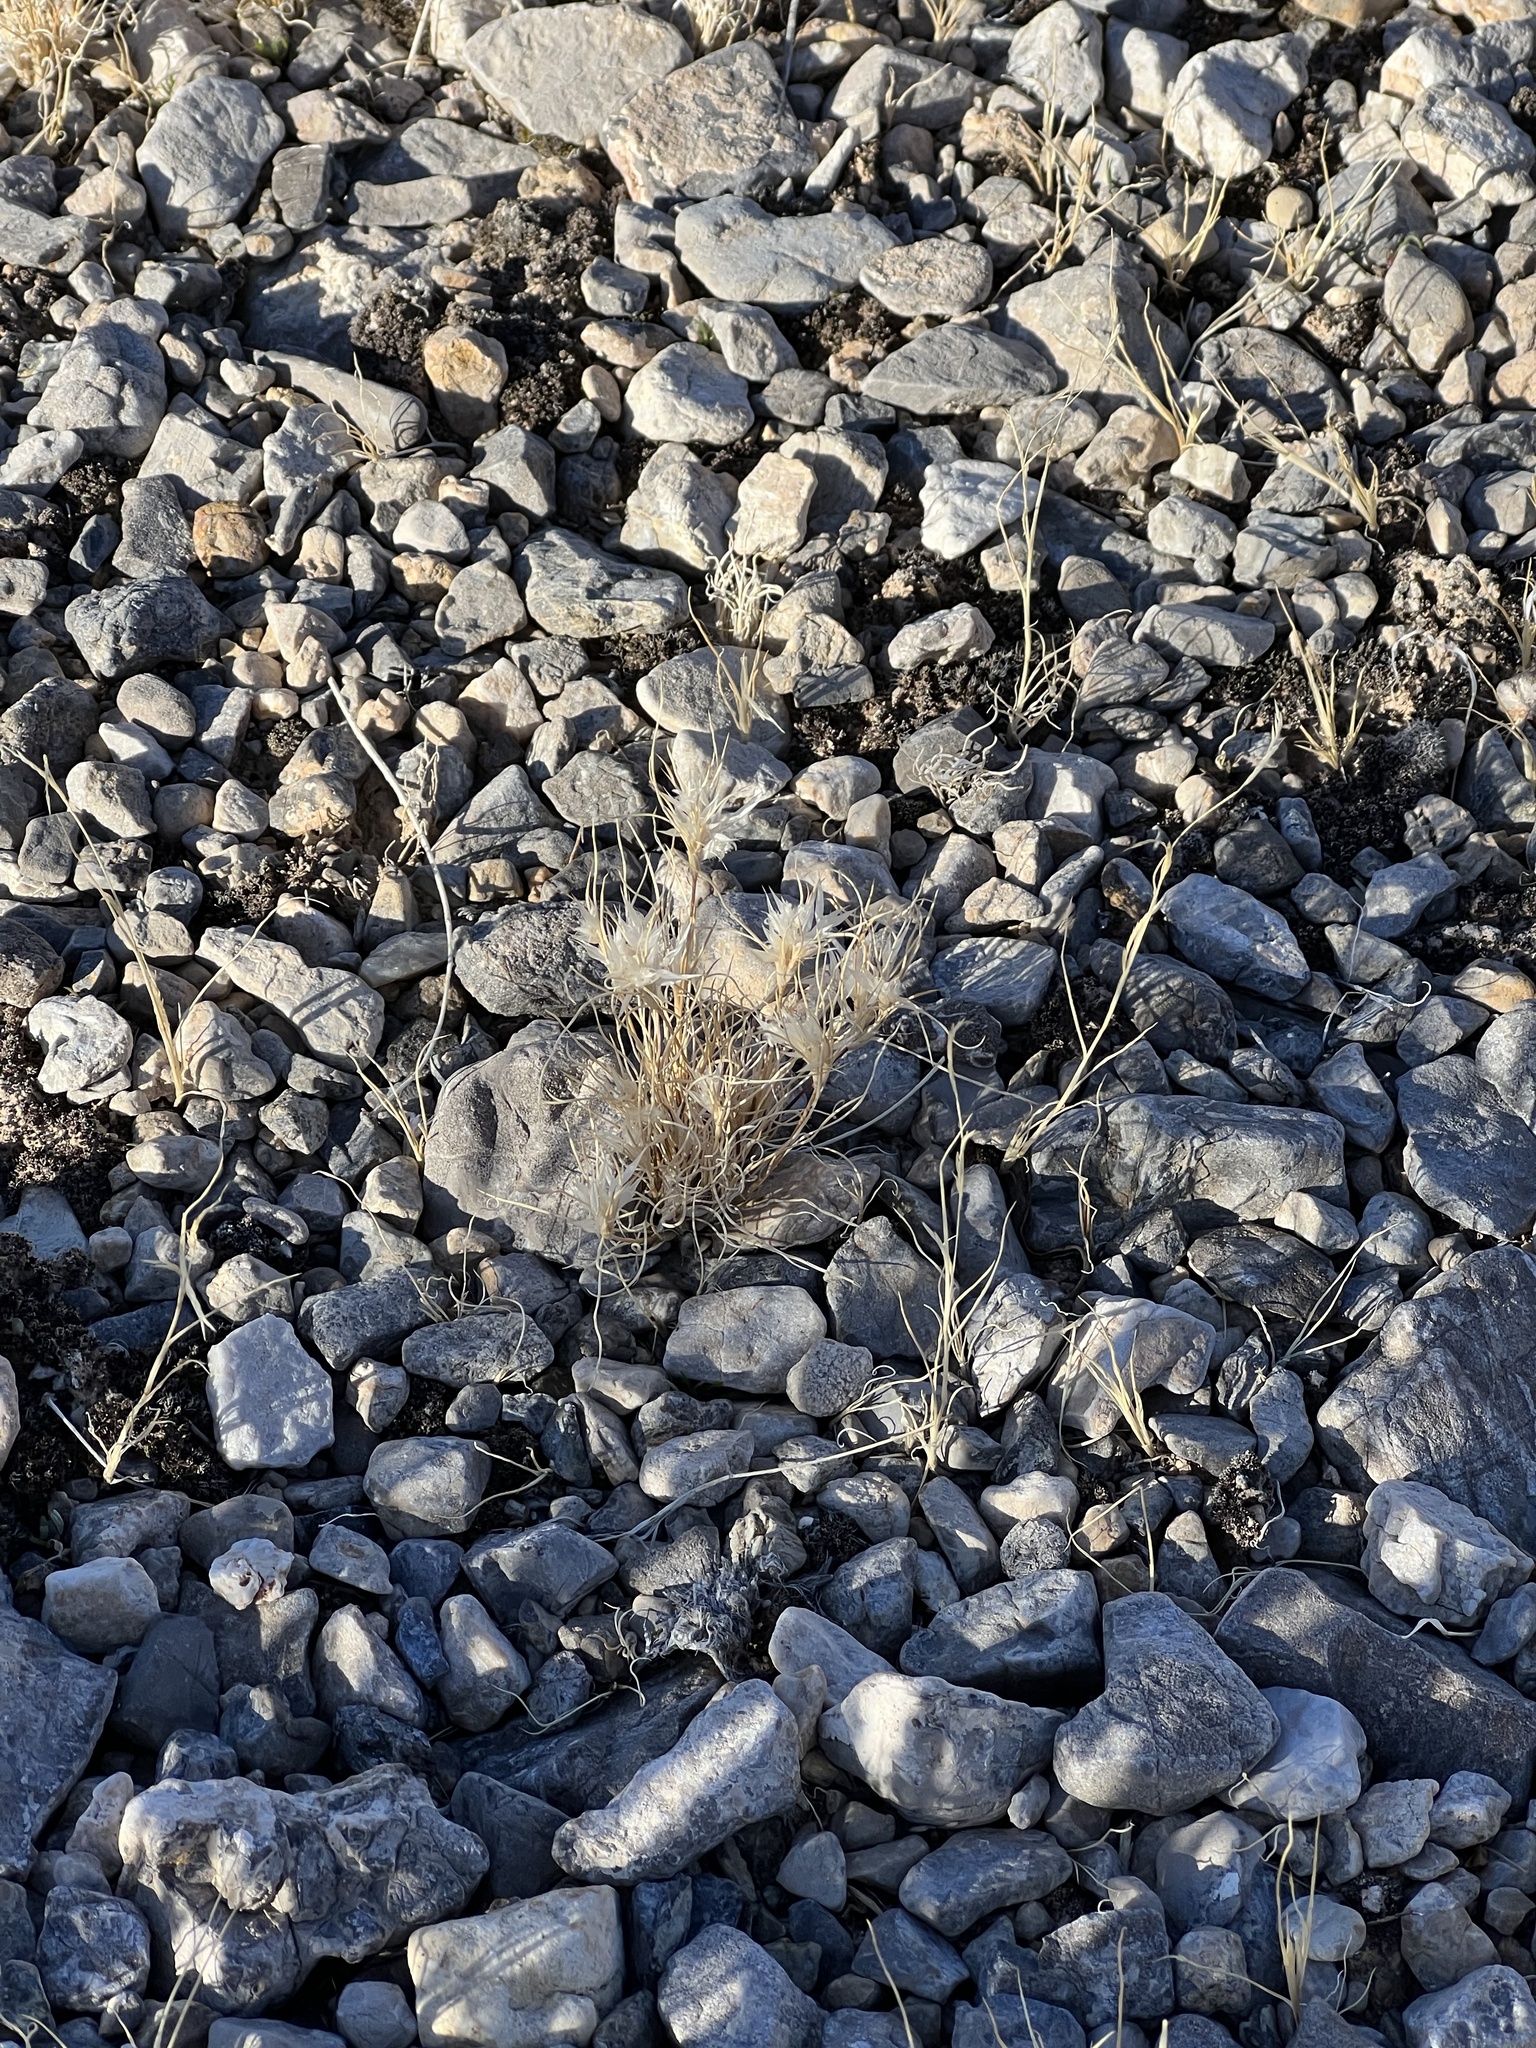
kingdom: Plantae
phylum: Tracheophyta
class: Liliopsida
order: Poales
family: Poaceae
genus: Dasyochloa
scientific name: Dasyochloa pulchella
